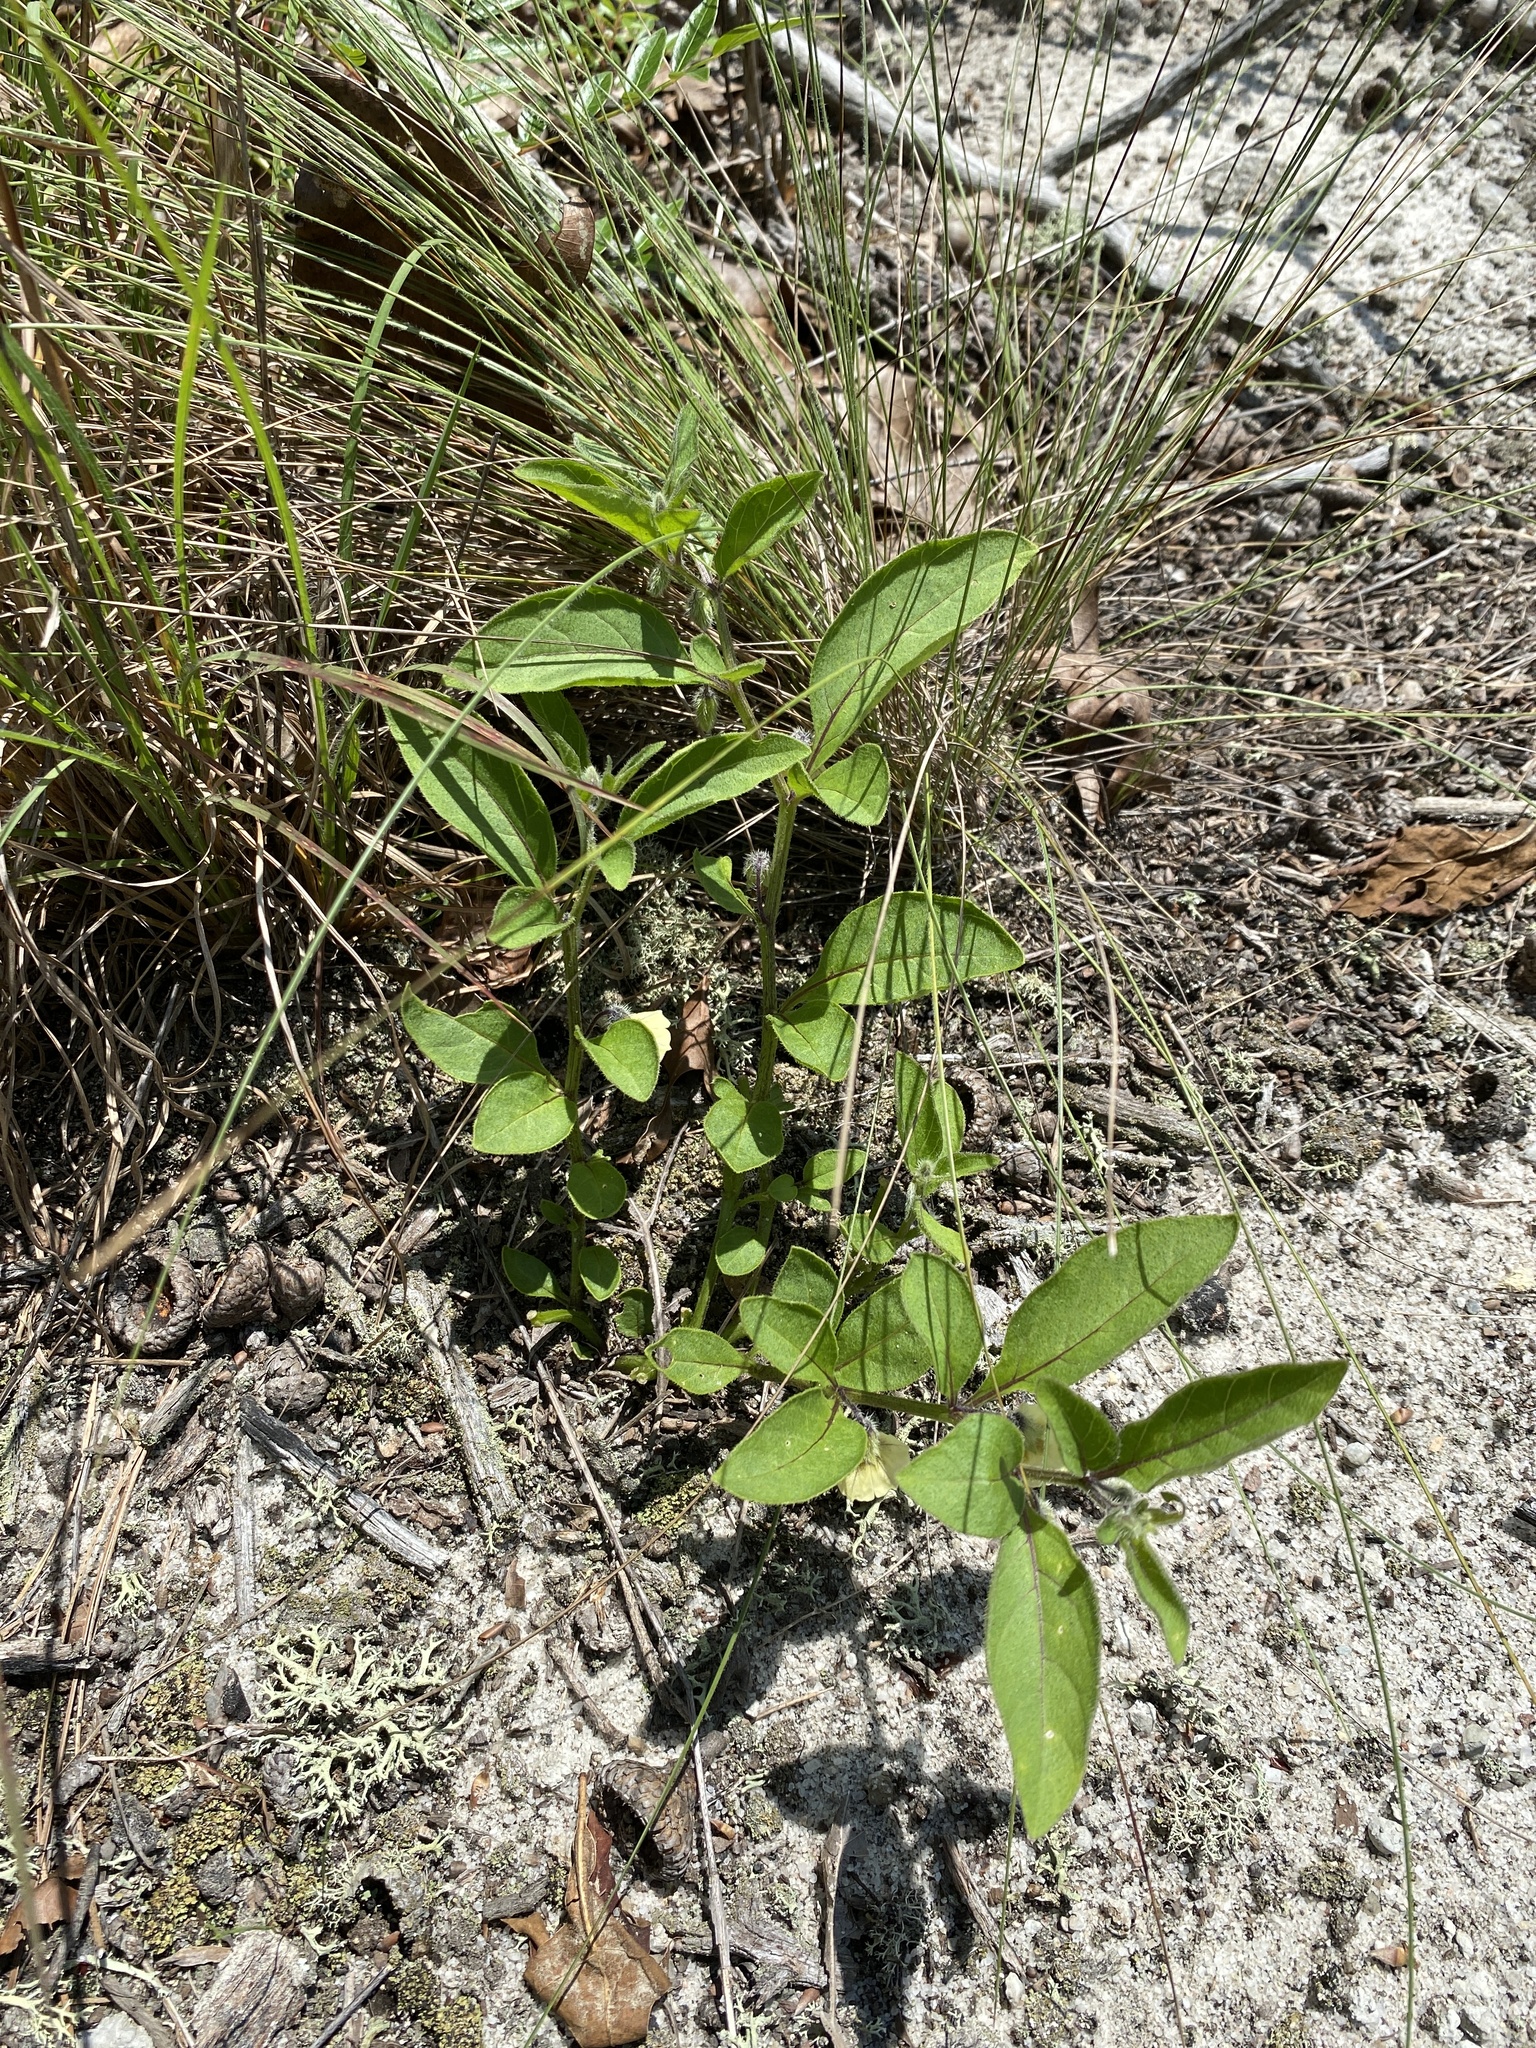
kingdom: Plantae
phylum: Tracheophyta
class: Magnoliopsida
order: Solanales
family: Solanaceae
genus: Physalis
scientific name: Physalis lanceolata
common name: Lance-leaved ground-cherry
